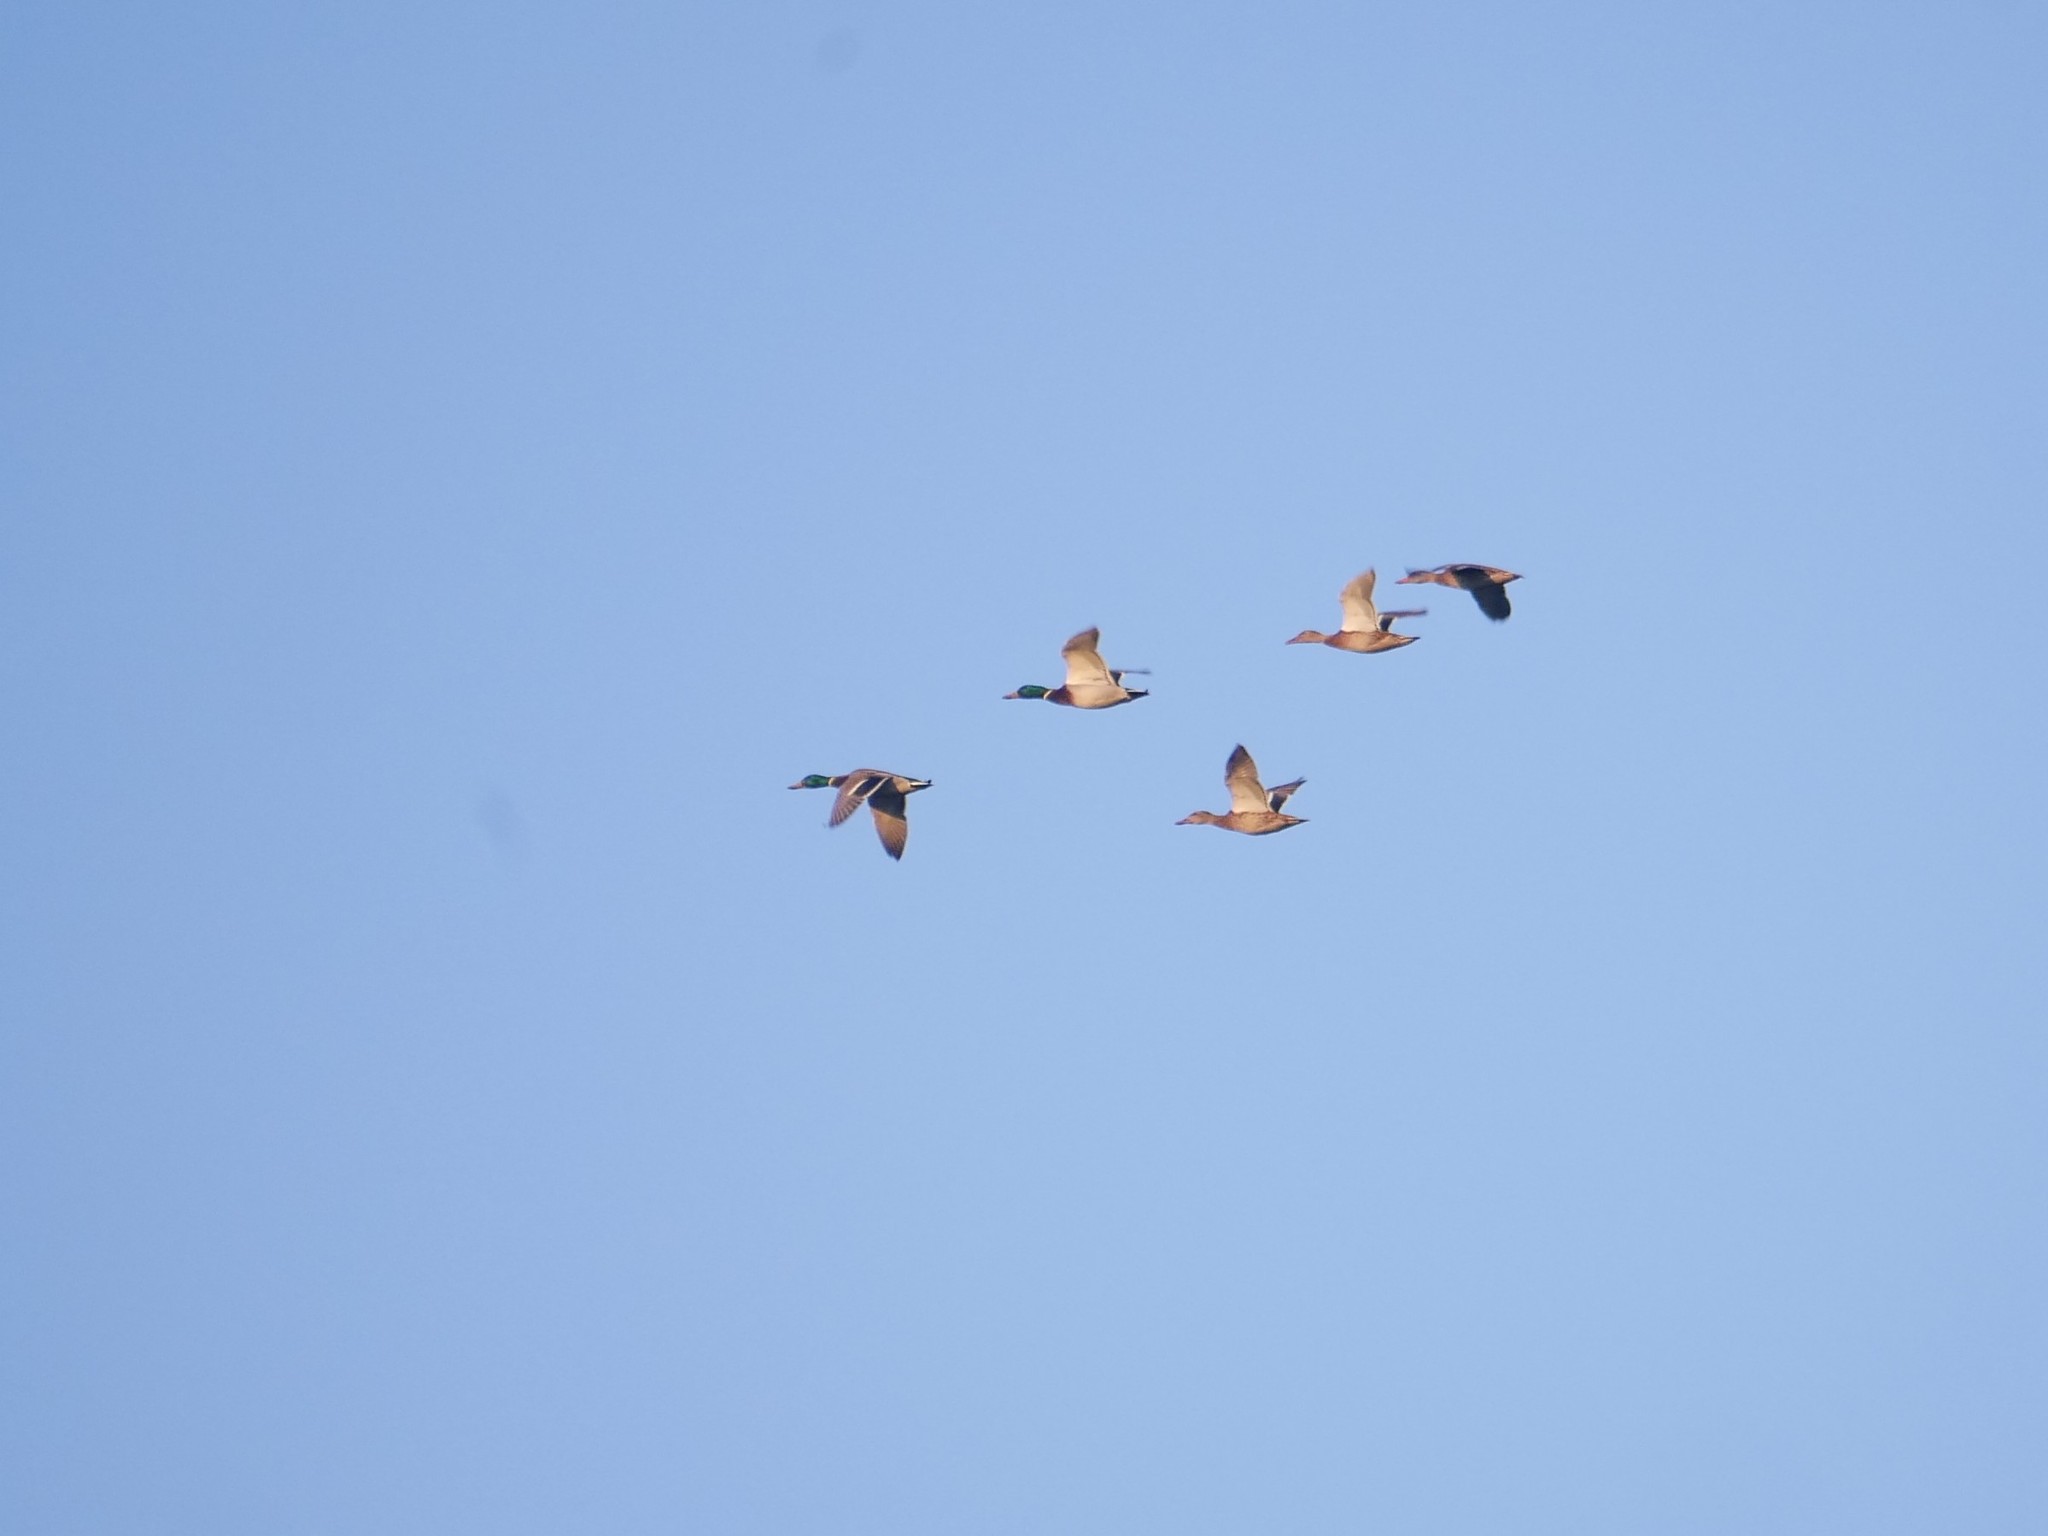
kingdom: Animalia
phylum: Chordata
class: Aves
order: Anseriformes
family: Anatidae
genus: Anas
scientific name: Anas platyrhynchos
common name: Mallard
